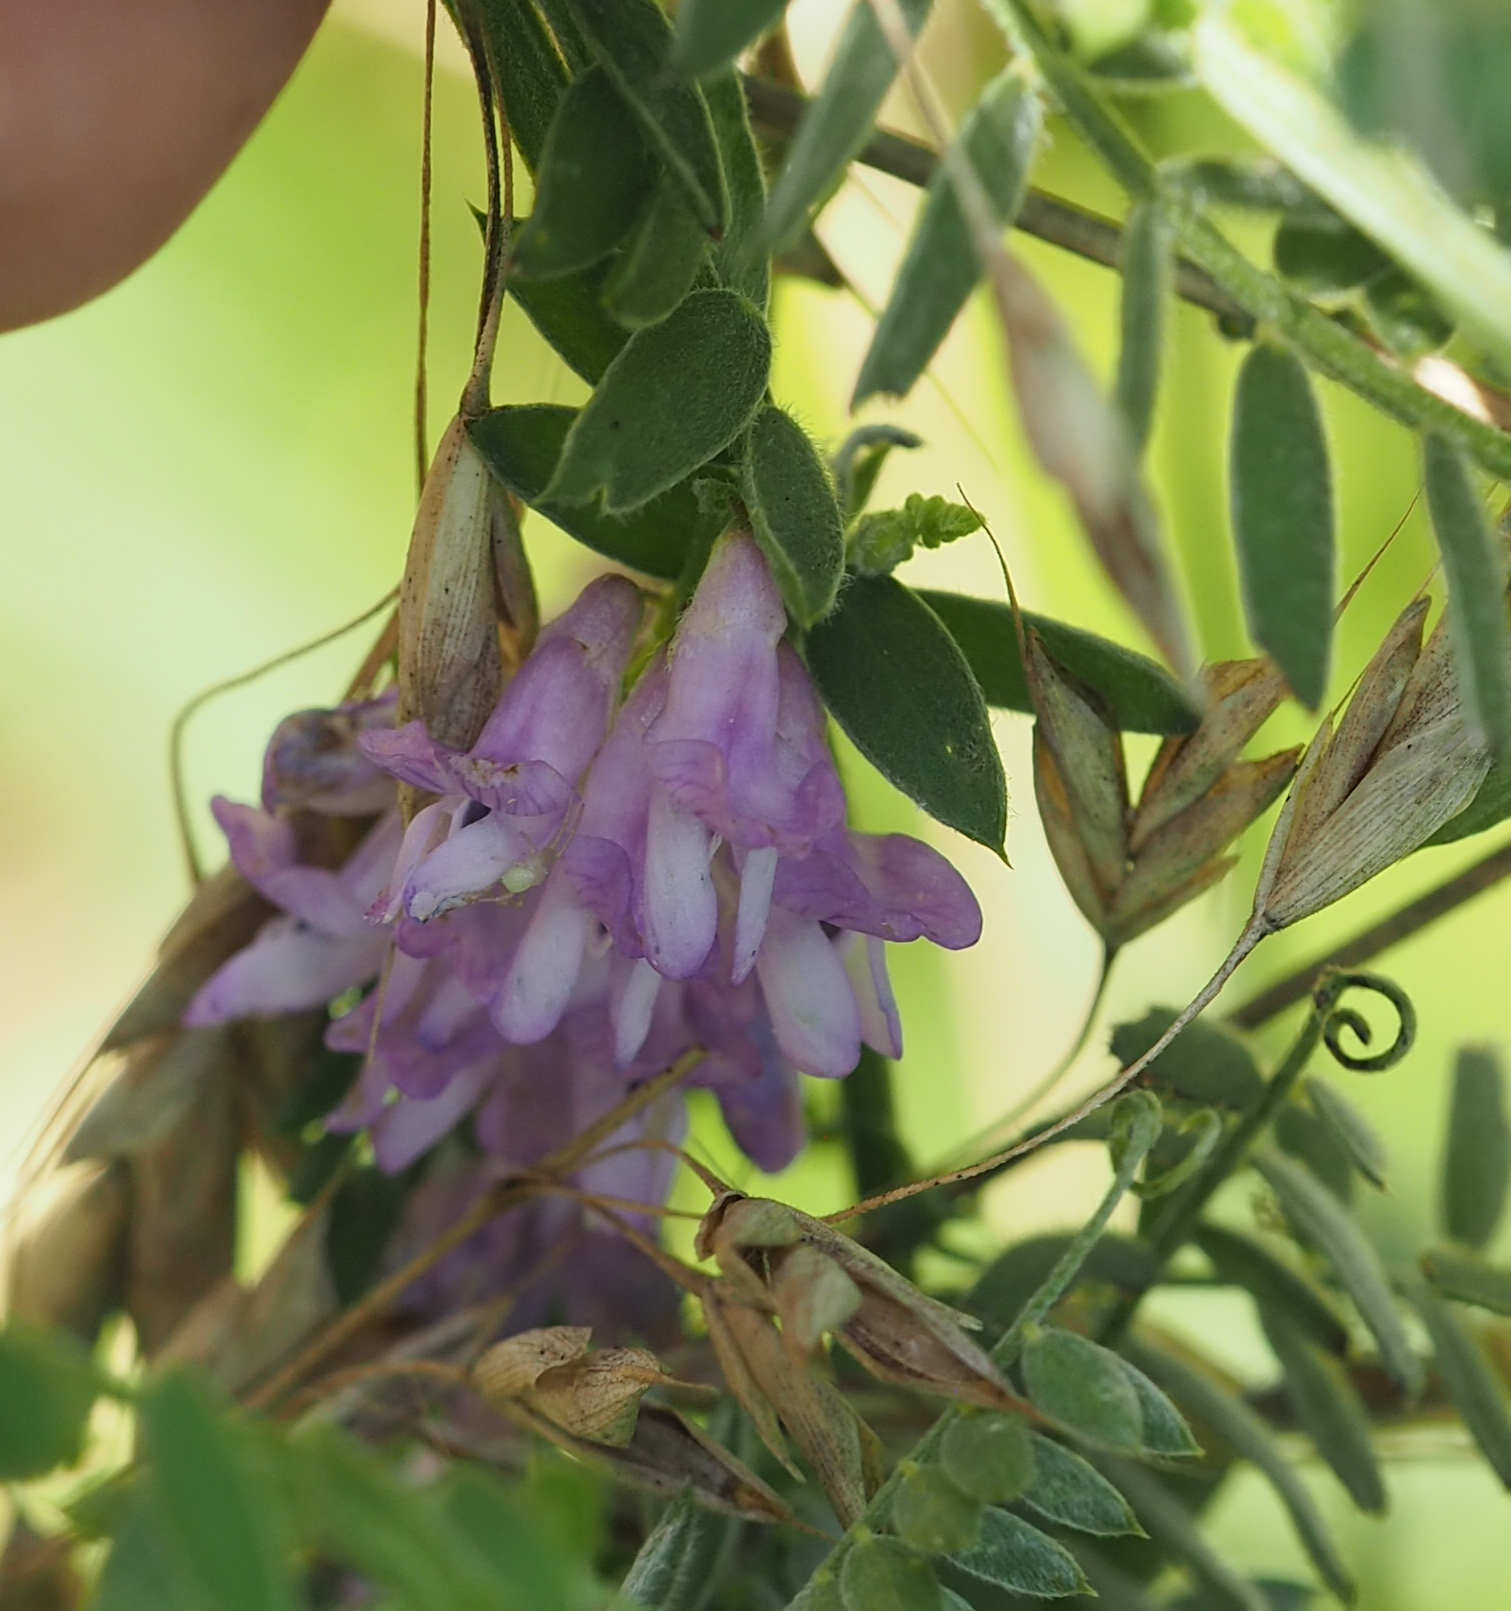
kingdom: Plantae
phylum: Tracheophyta
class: Magnoliopsida
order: Fabales
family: Fabaceae
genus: Vicia
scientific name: Vicia cracca
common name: Bird vetch
